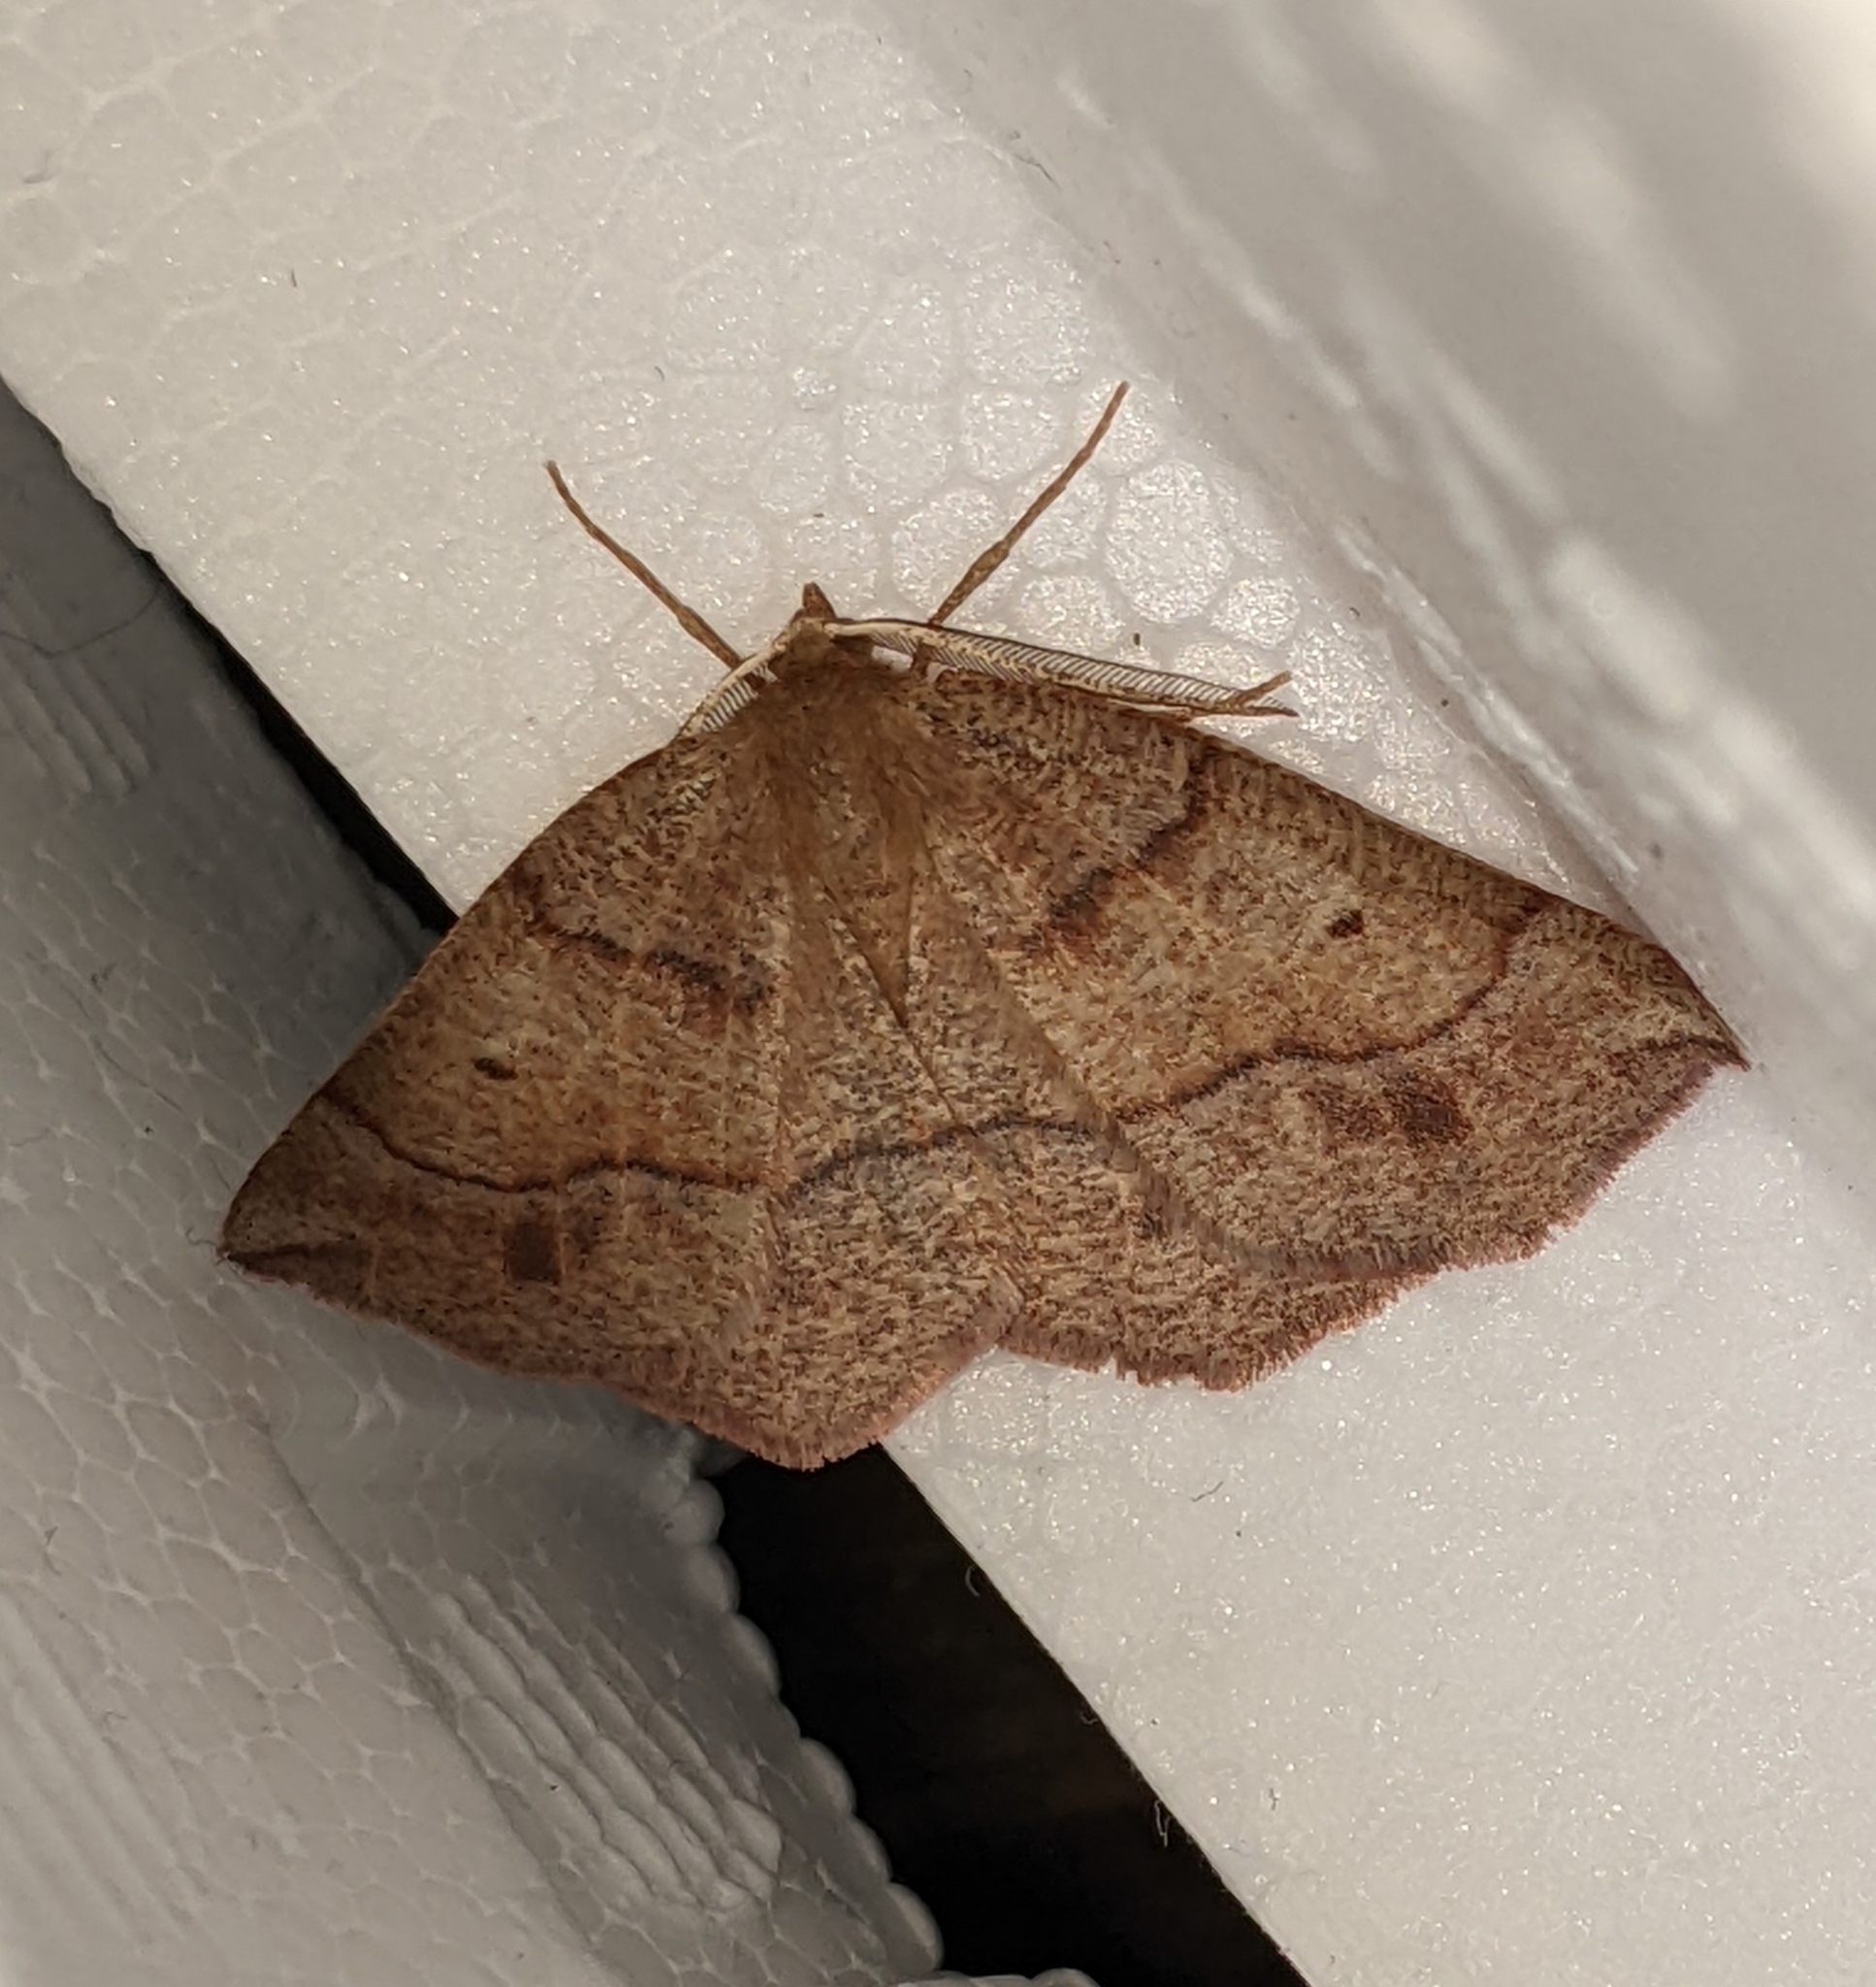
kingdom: Animalia
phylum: Arthropoda
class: Insecta
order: Lepidoptera
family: Geometridae
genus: Metarranthis
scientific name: Metarranthis duaria
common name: Ruddy metarranthis moth
